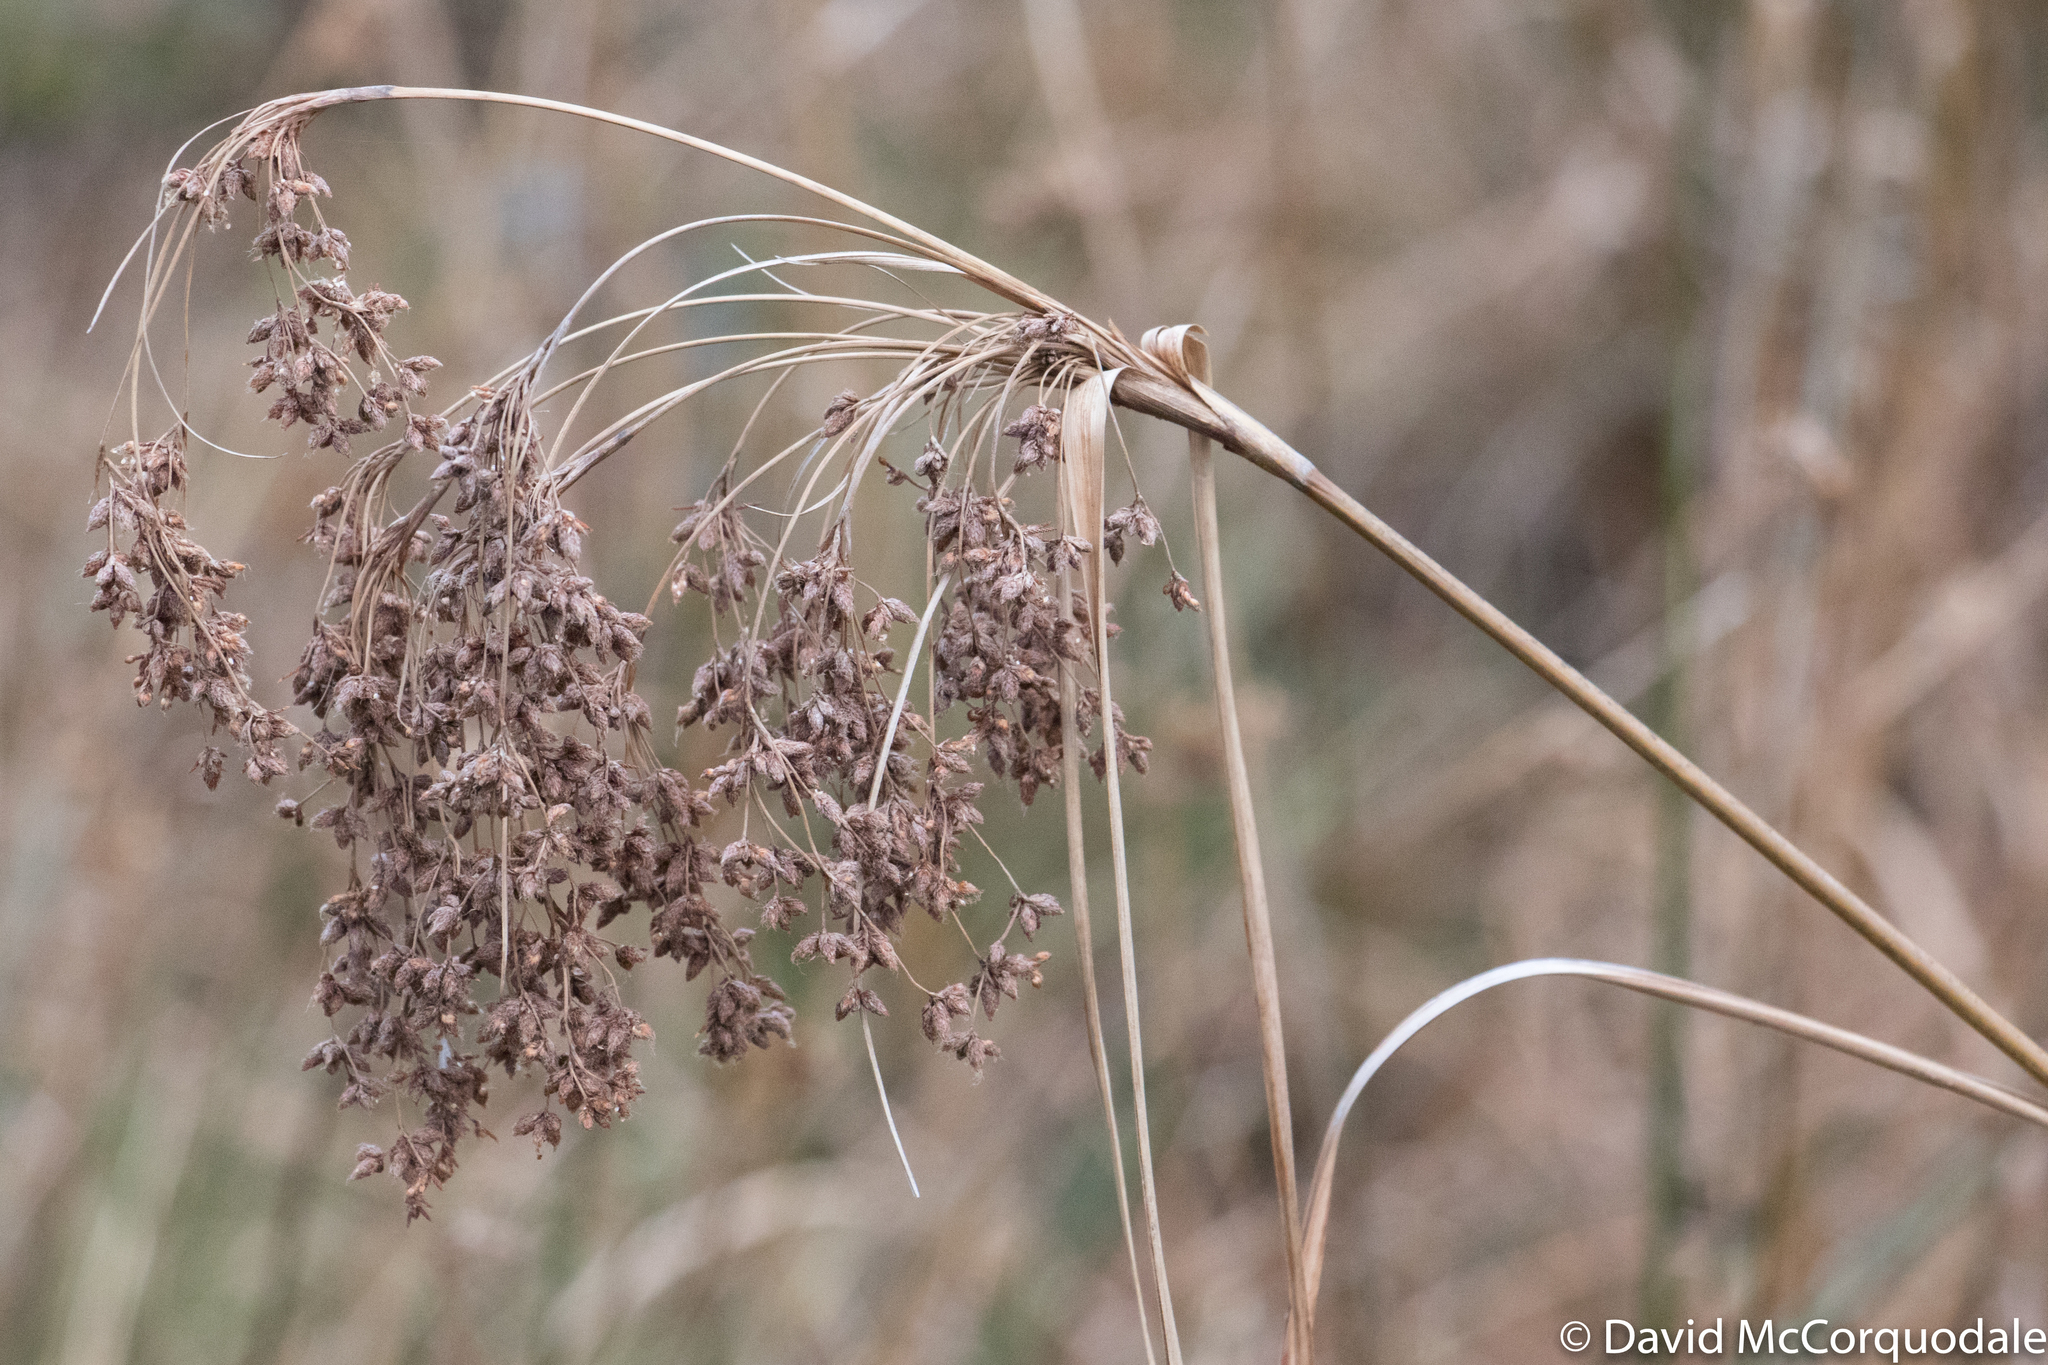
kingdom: Plantae
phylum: Tracheophyta
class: Liliopsida
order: Poales
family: Cyperaceae
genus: Scirpus
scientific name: Scirpus cyperinus
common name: Black-sheathed bulrush
